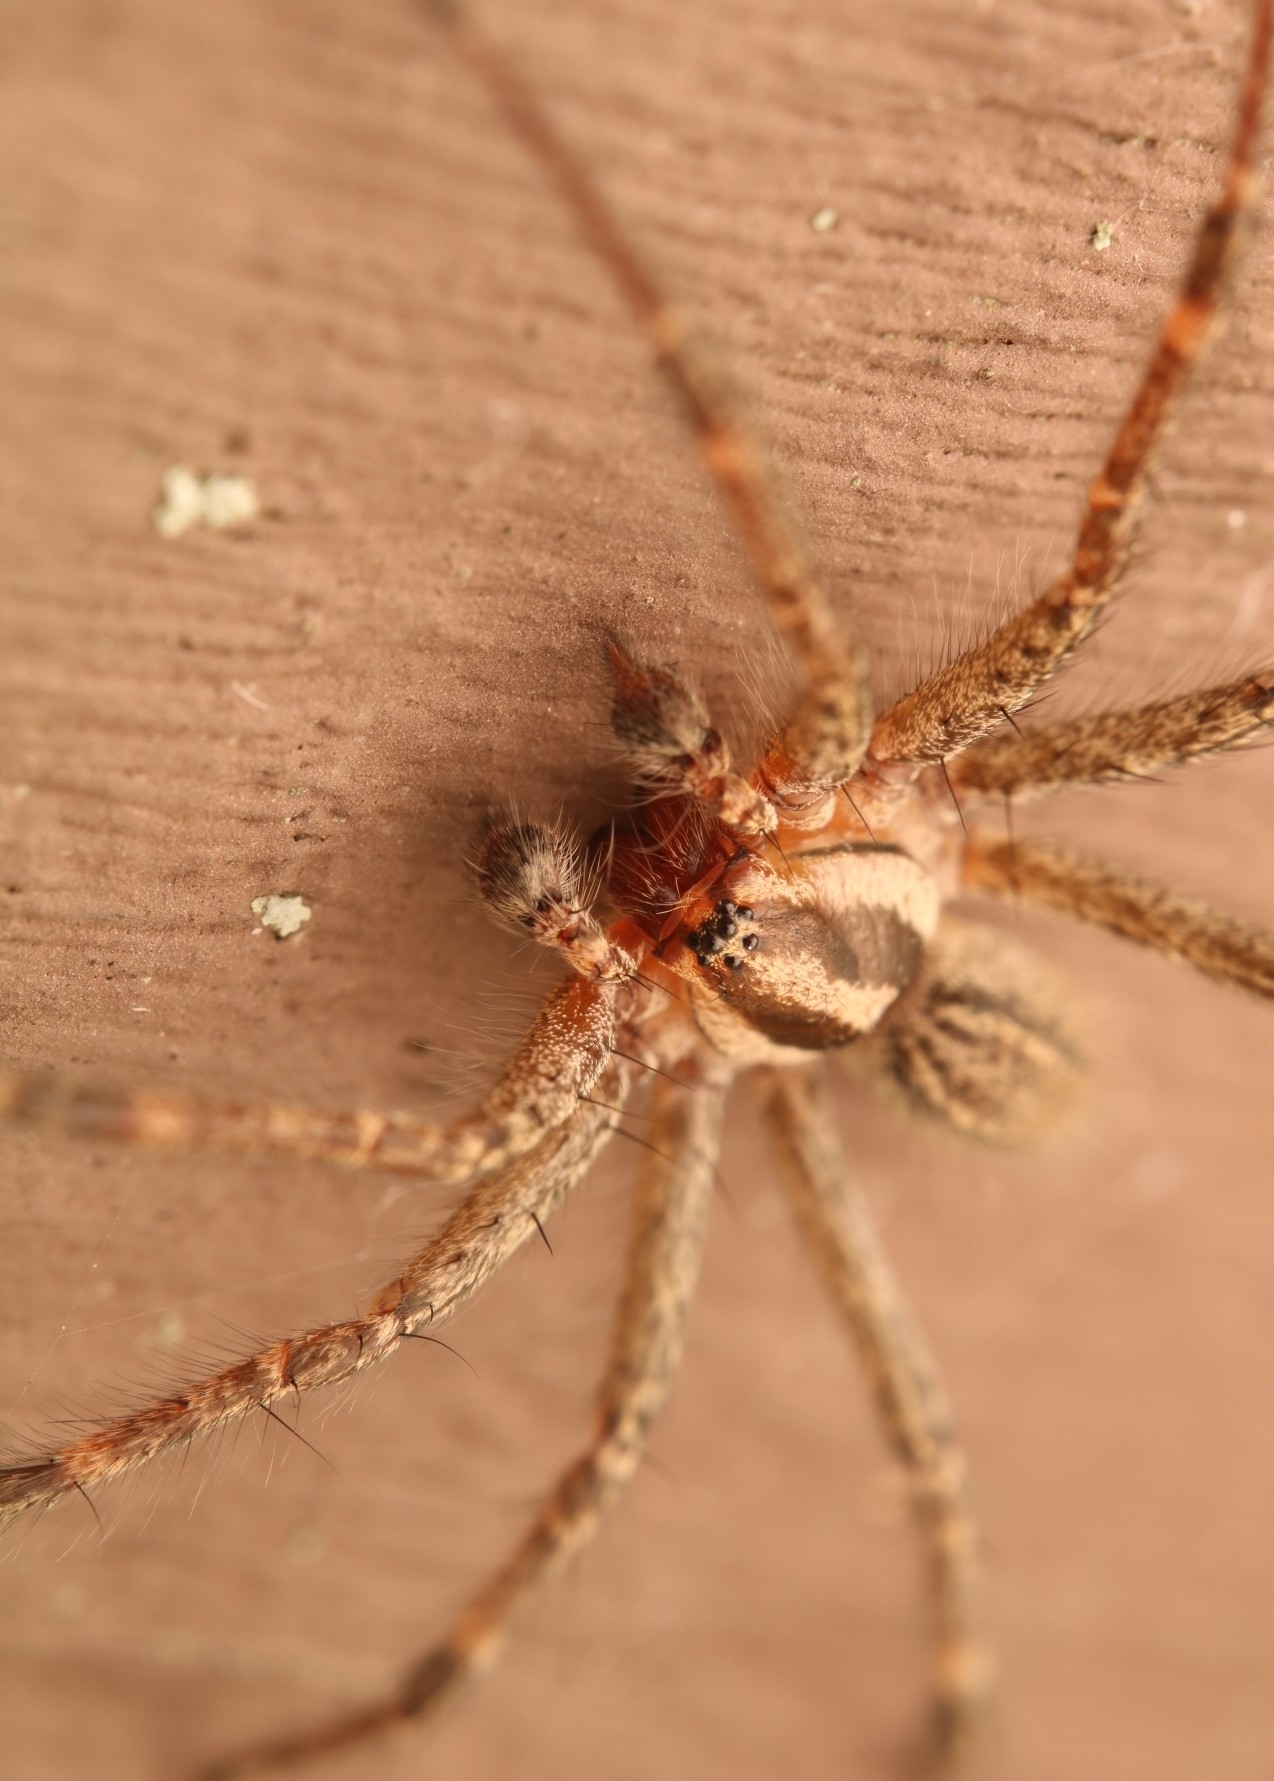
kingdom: Animalia
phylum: Arthropoda
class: Arachnida
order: Araneae
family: Agelenidae
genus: Agelenopsis
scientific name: Agelenopsis
